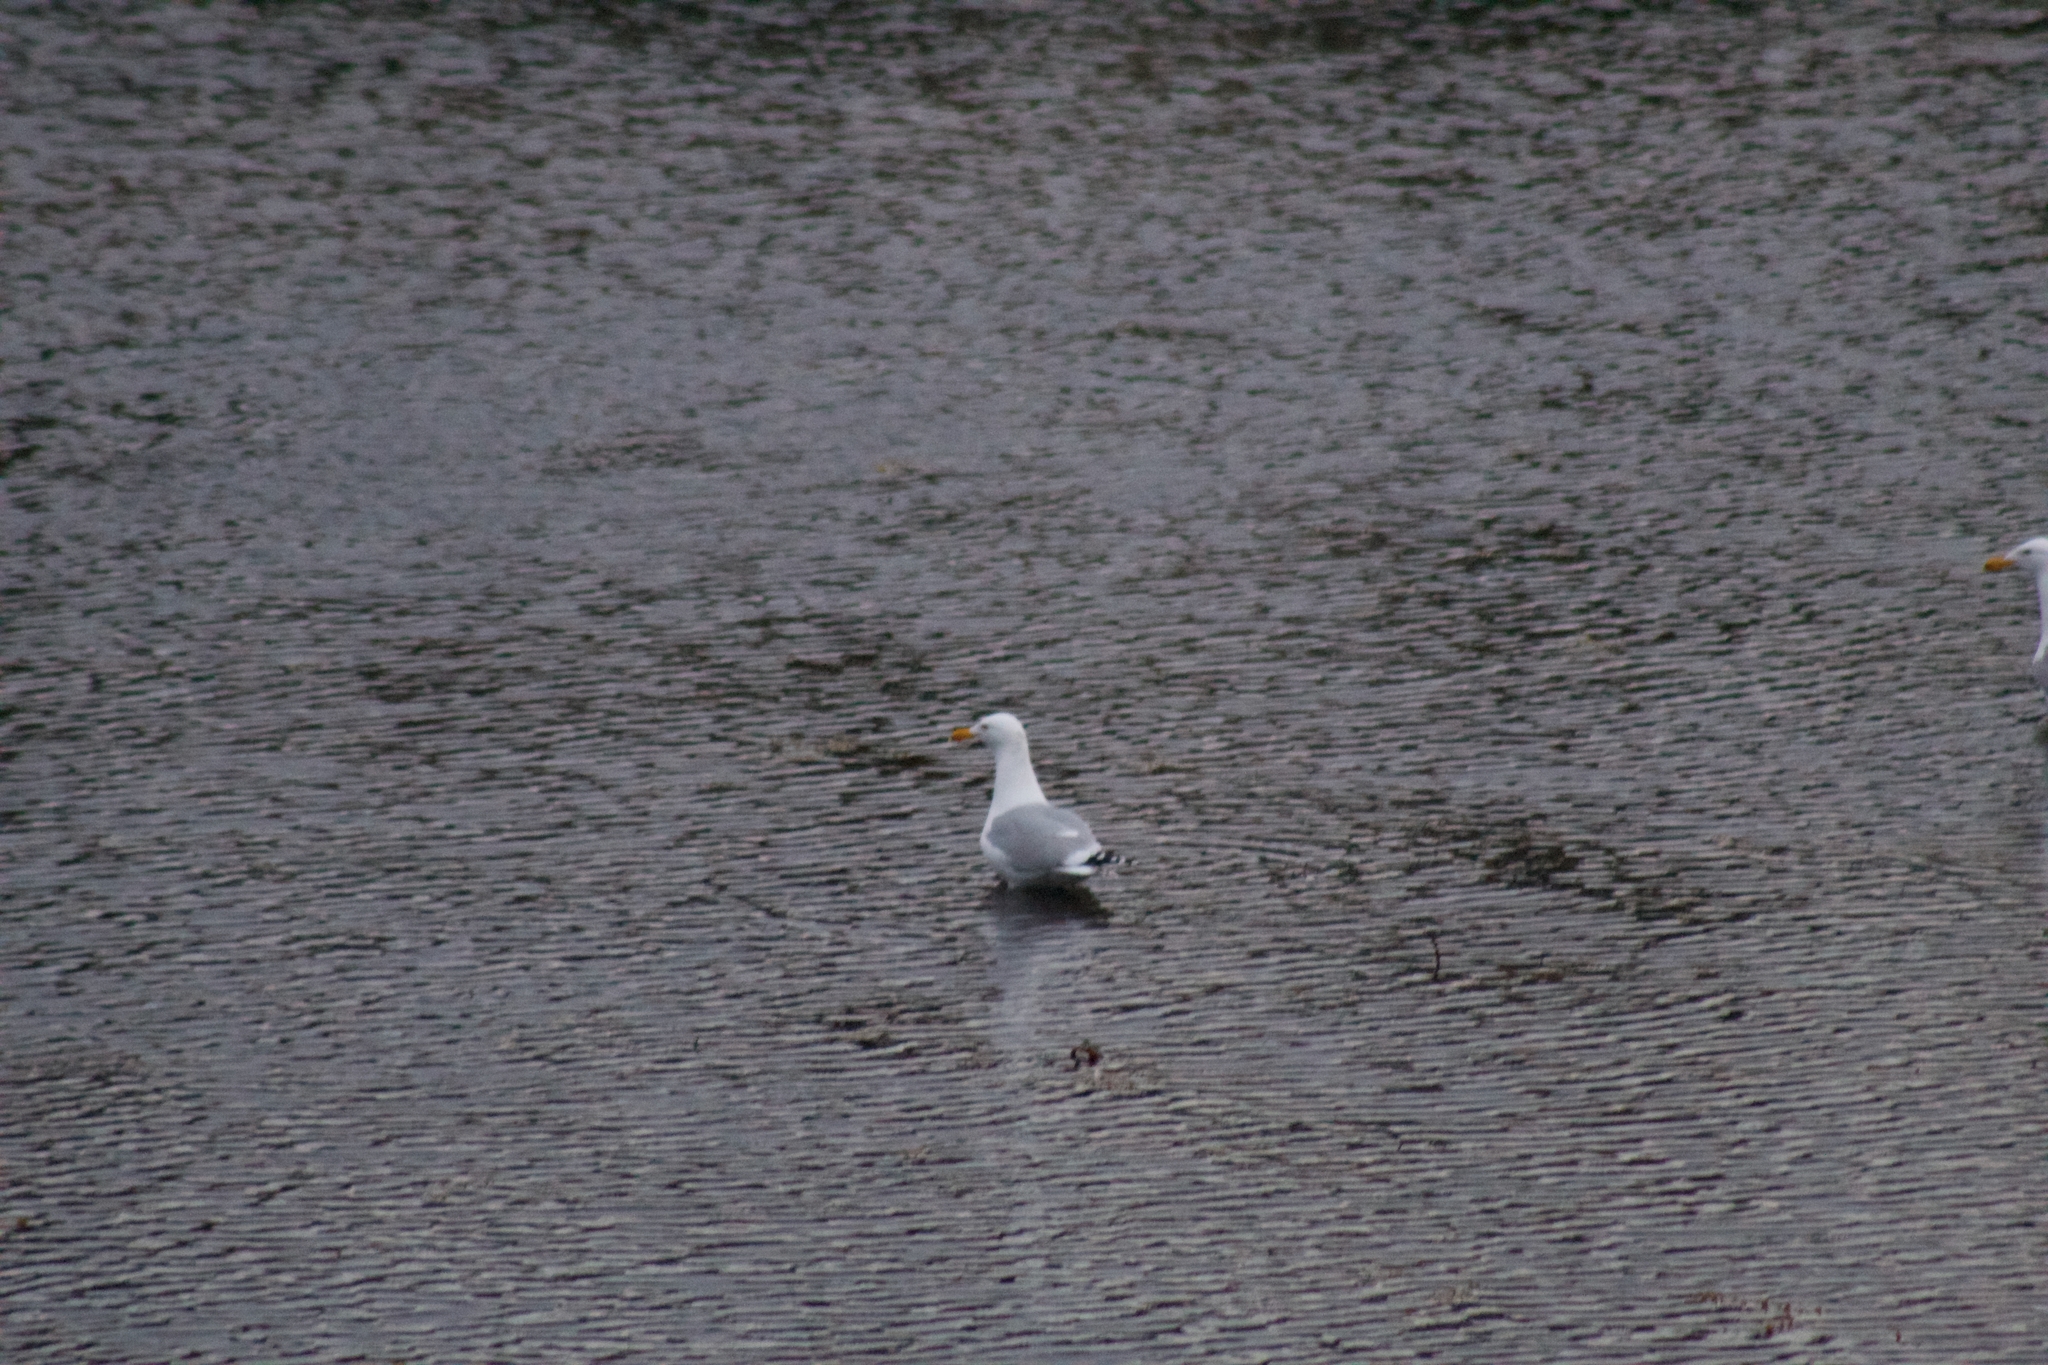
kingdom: Animalia
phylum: Chordata
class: Aves
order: Charadriiformes
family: Laridae
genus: Larus
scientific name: Larus argentatus
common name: Herring gull
